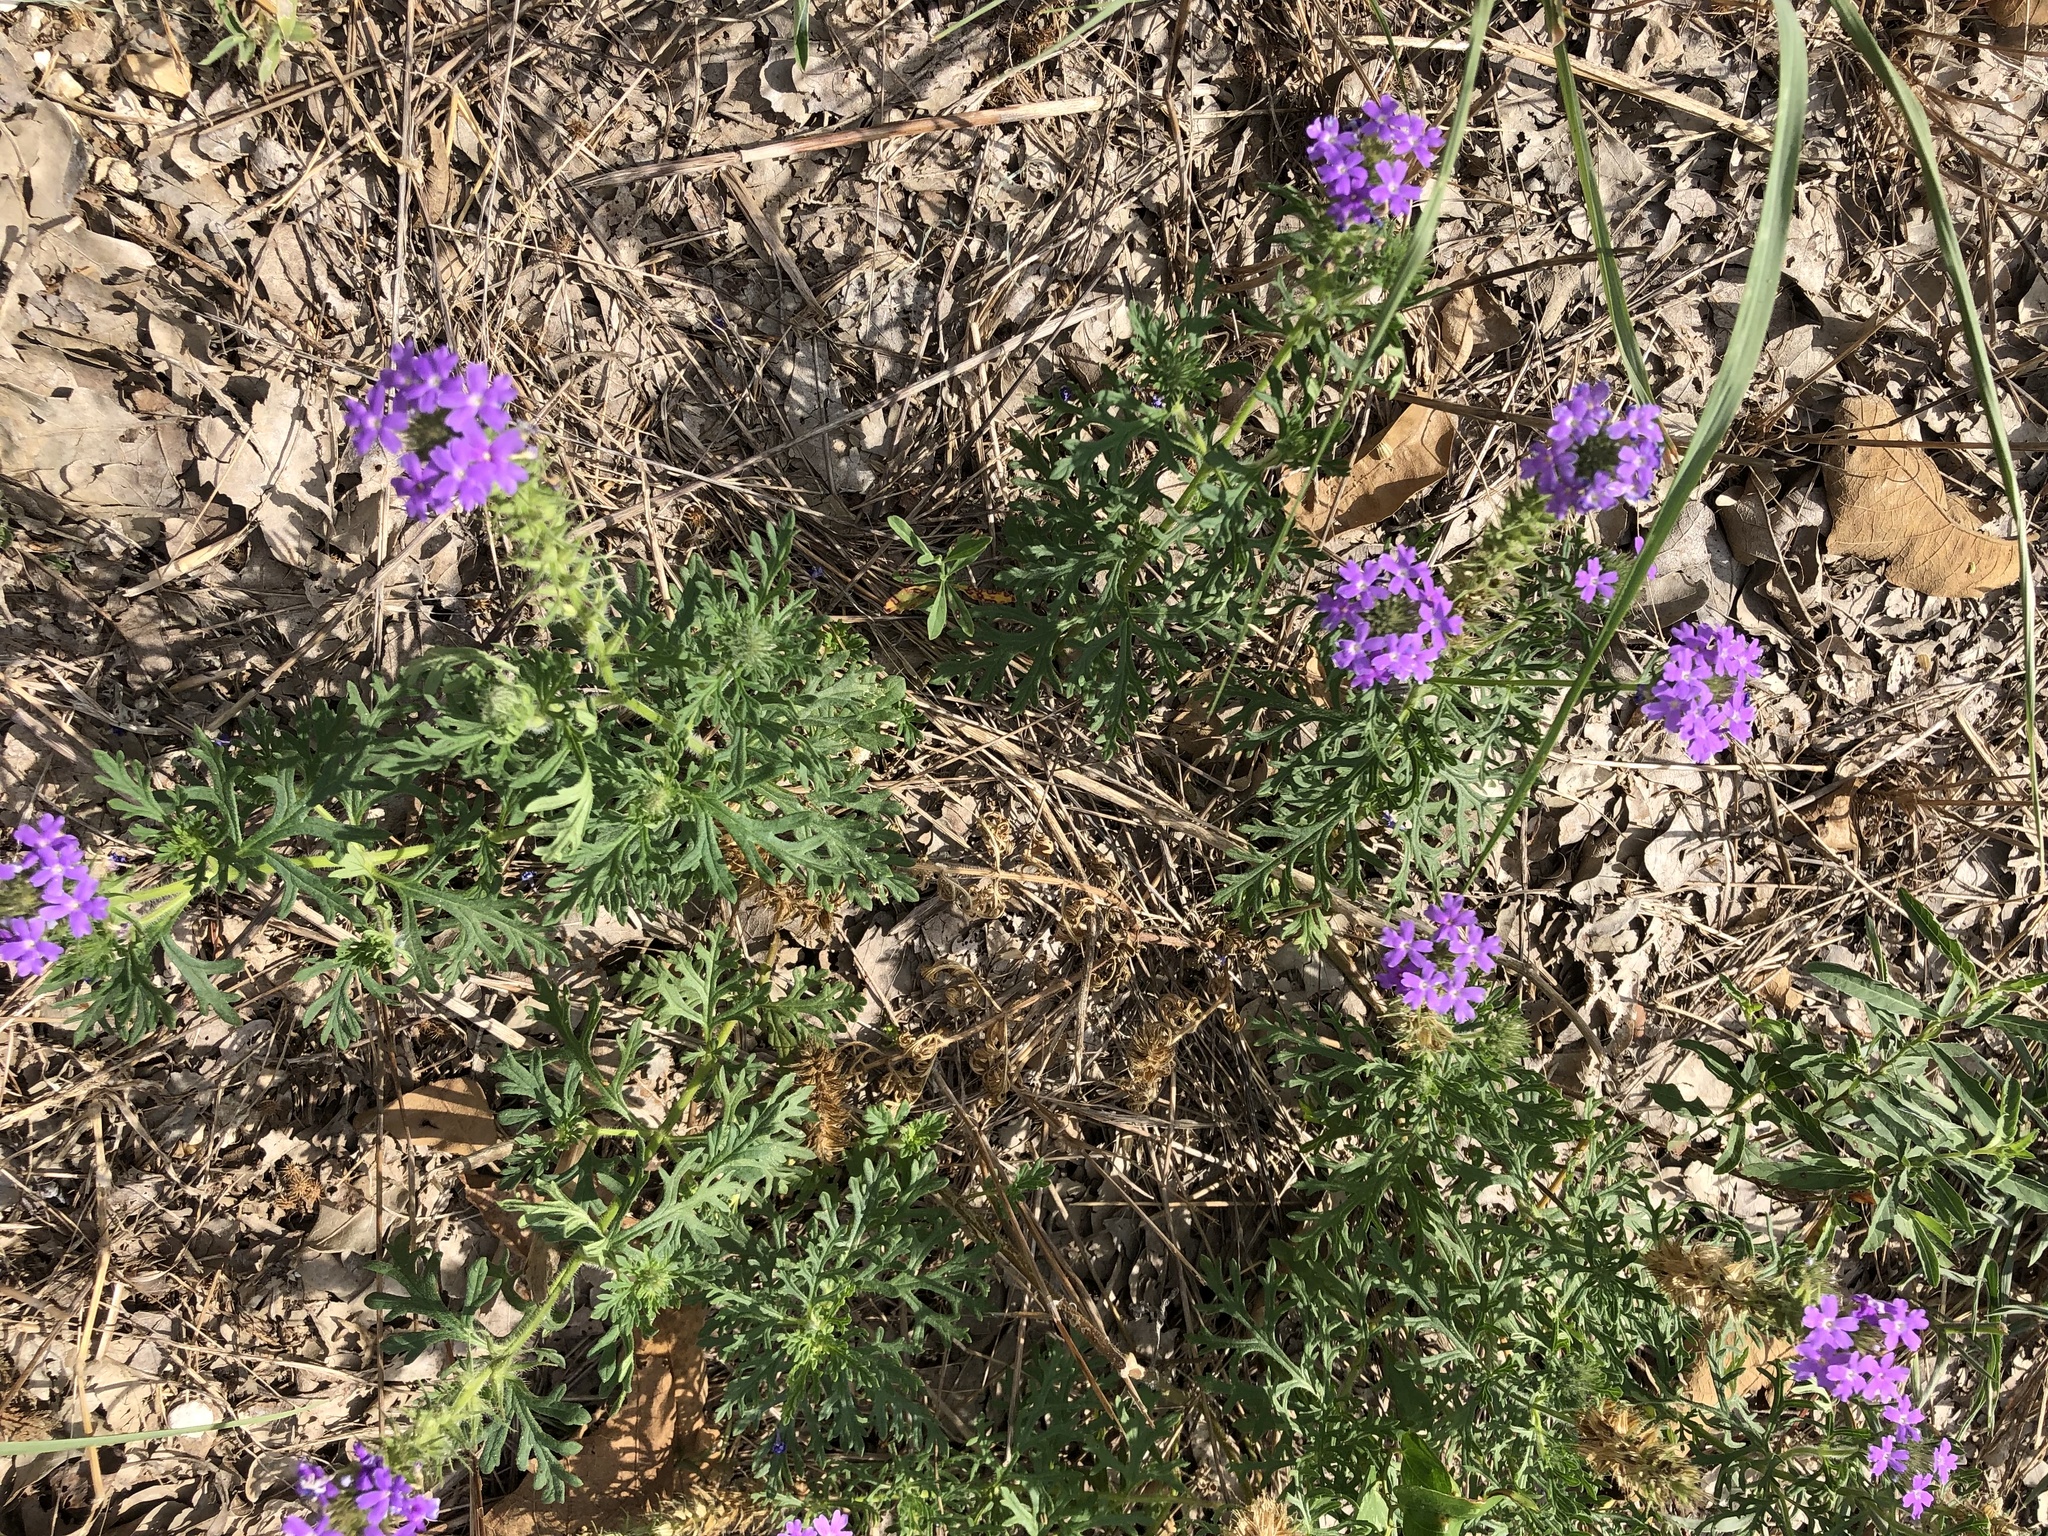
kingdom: Plantae
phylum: Tracheophyta
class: Magnoliopsida
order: Lamiales
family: Verbenaceae
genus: Verbena
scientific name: Verbena bipinnatifida
